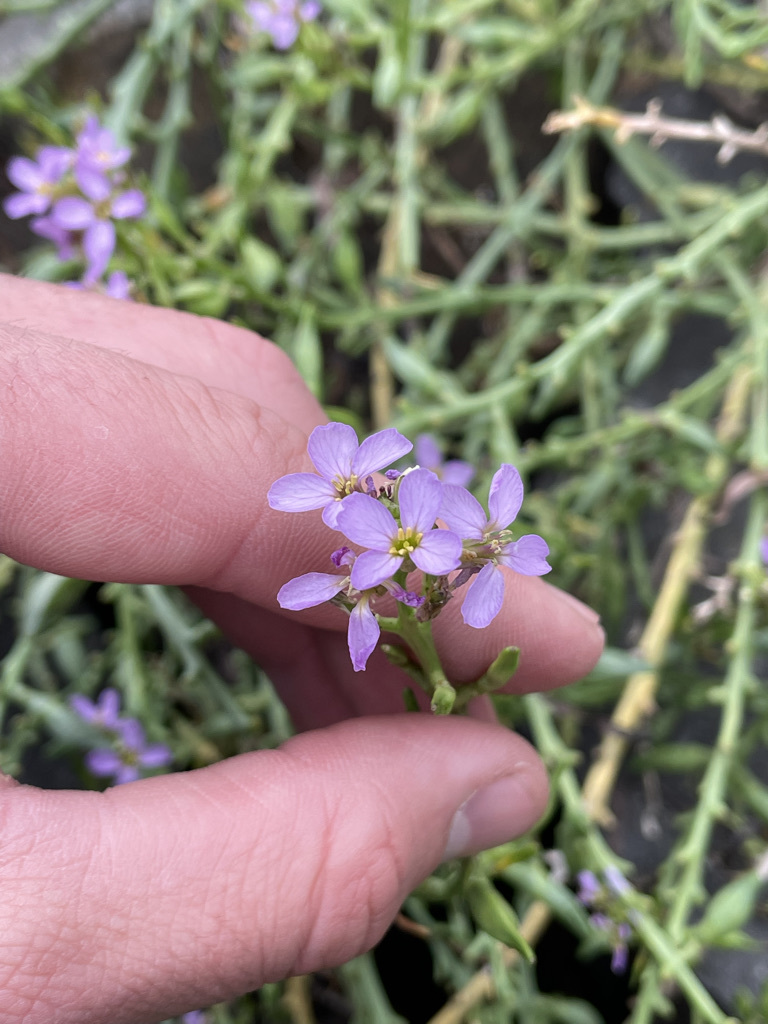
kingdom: Plantae
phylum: Tracheophyta
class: Magnoliopsida
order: Brassicales
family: Brassicaceae
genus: Cakile
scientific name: Cakile maritima
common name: Sea rocket
